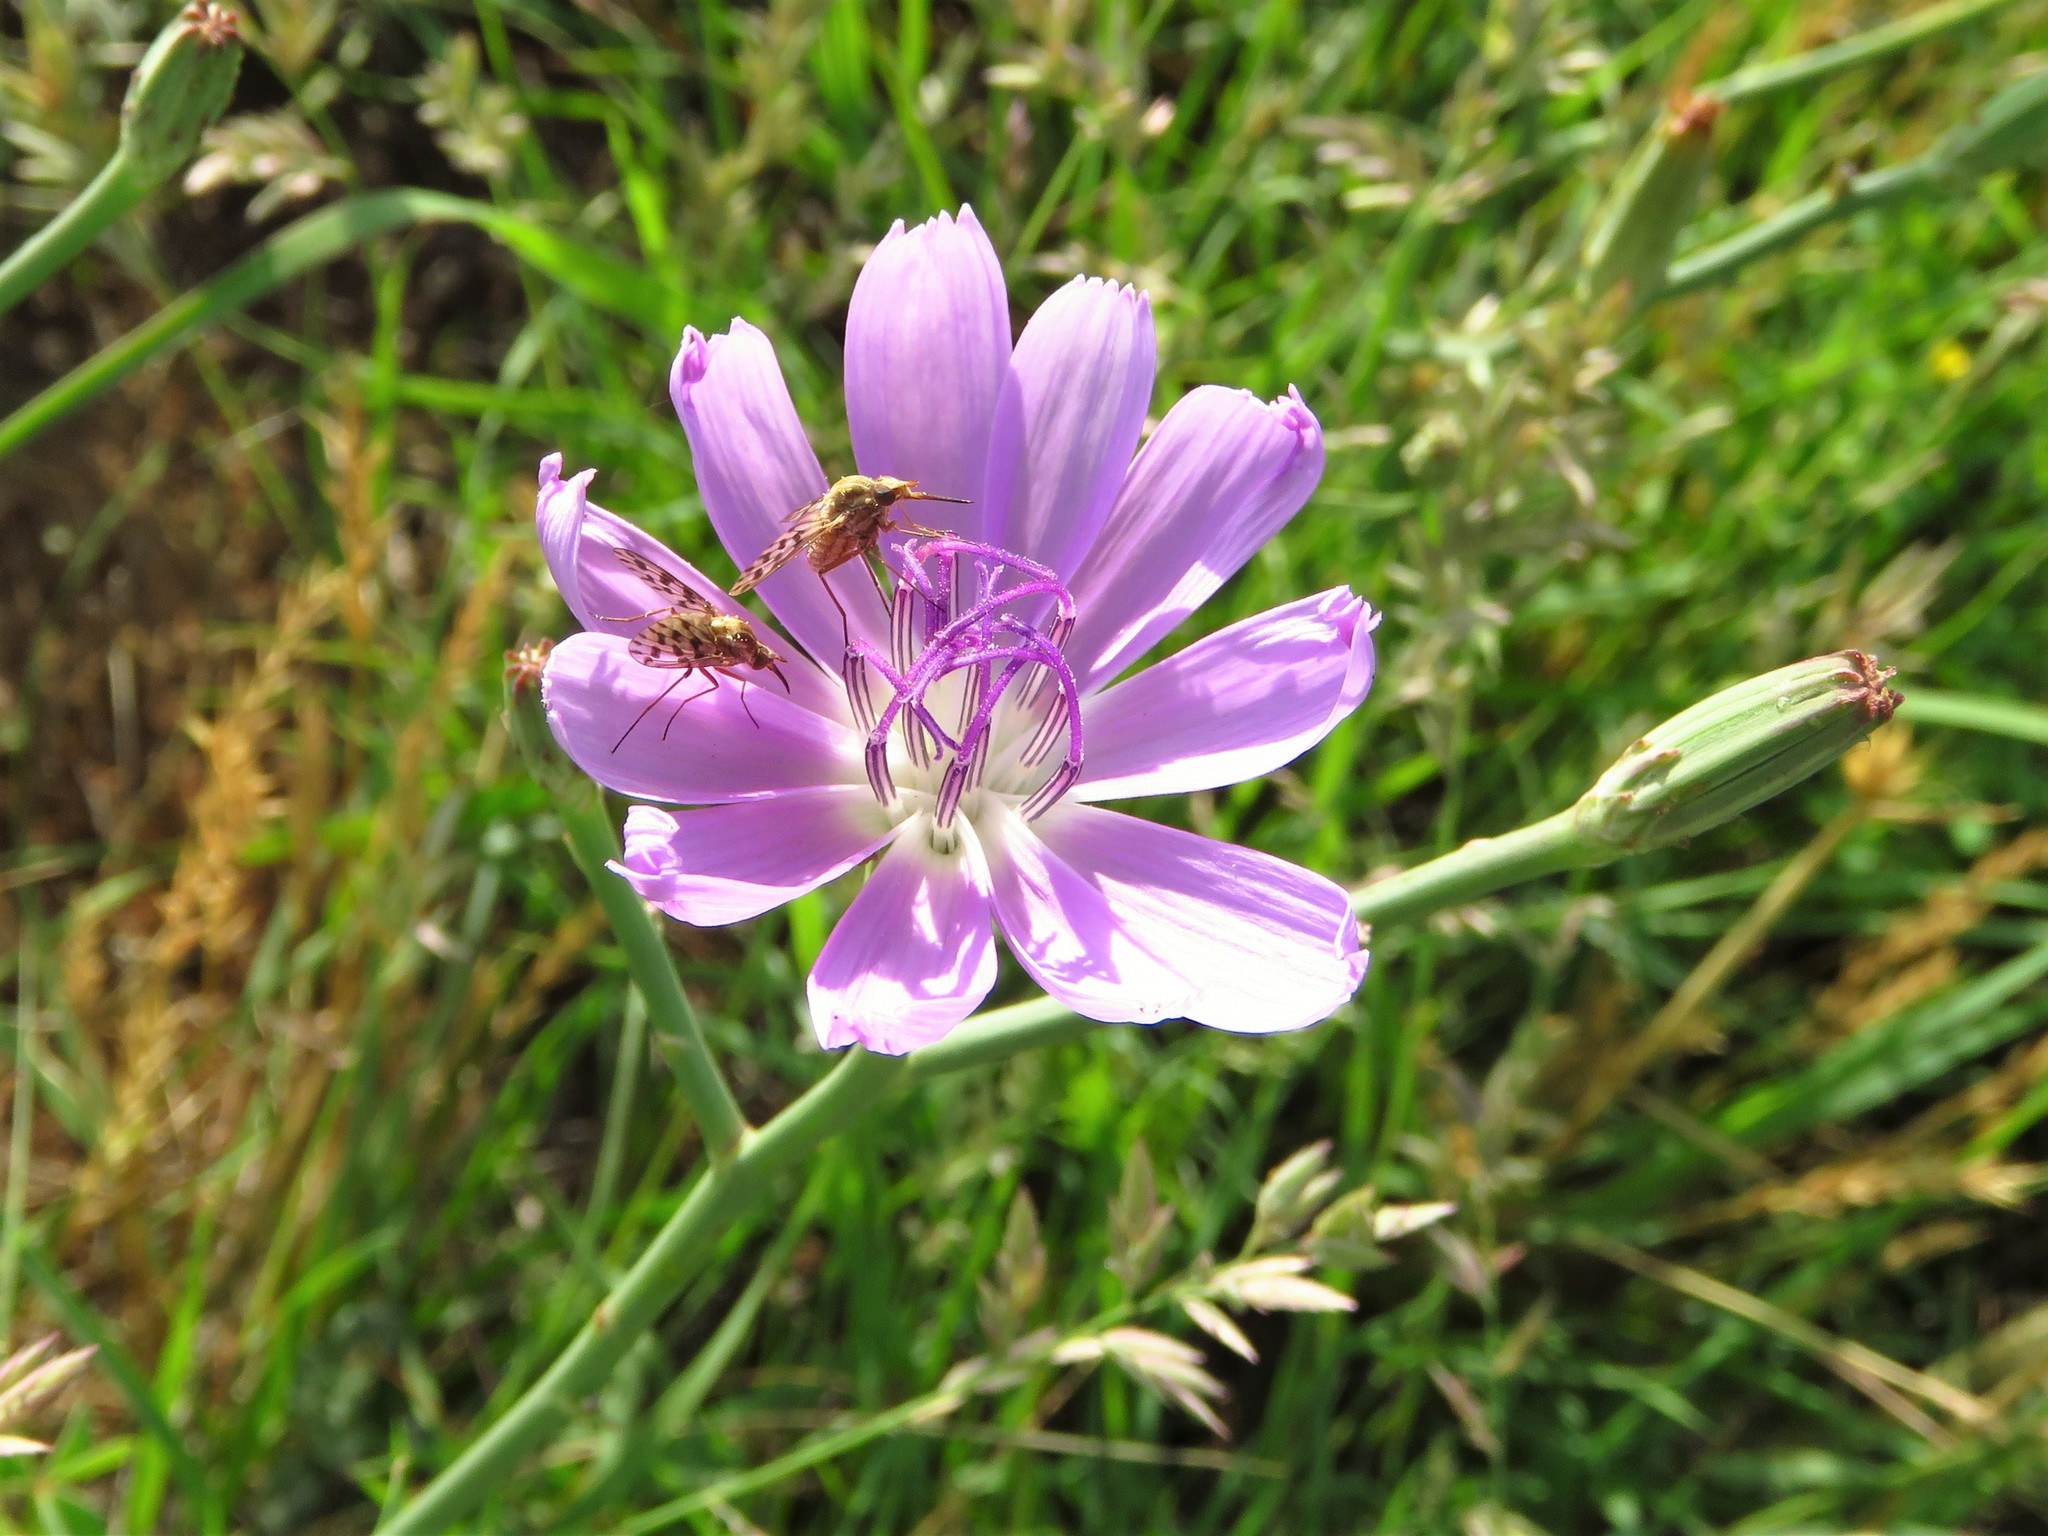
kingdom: Plantae
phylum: Tracheophyta
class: Magnoliopsida
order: Asterales
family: Asteraceae
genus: Lygodesmia
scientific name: Lygodesmia texana
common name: Texas skeleton-plant
